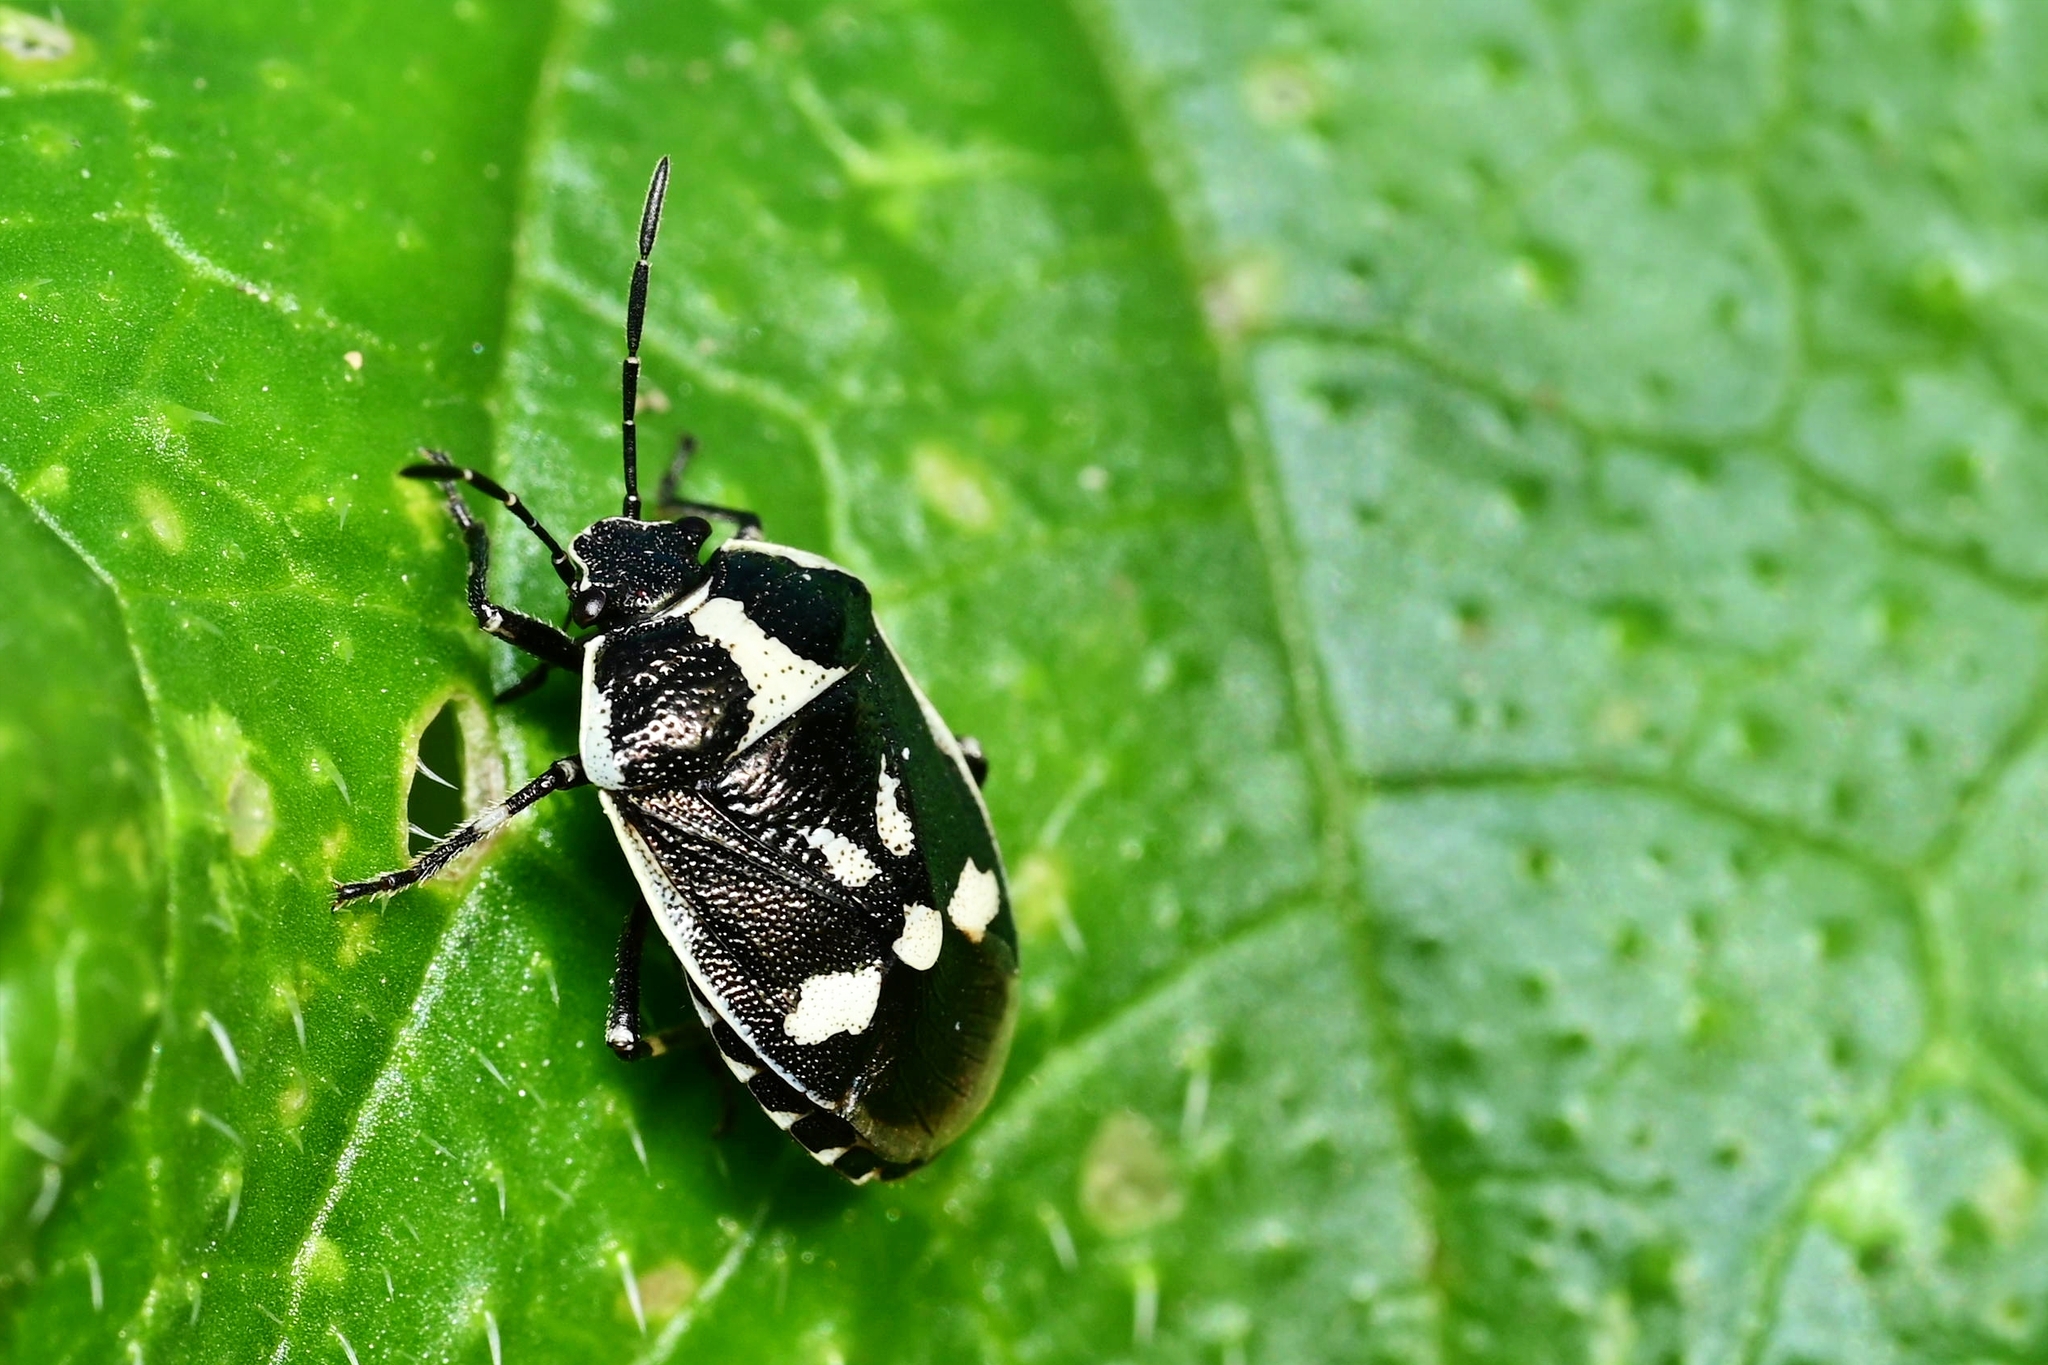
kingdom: Animalia
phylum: Arthropoda
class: Insecta
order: Hemiptera
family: Pentatomidae
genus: Eurydema
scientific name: Eurydema oleracea
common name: Cabbage bug
